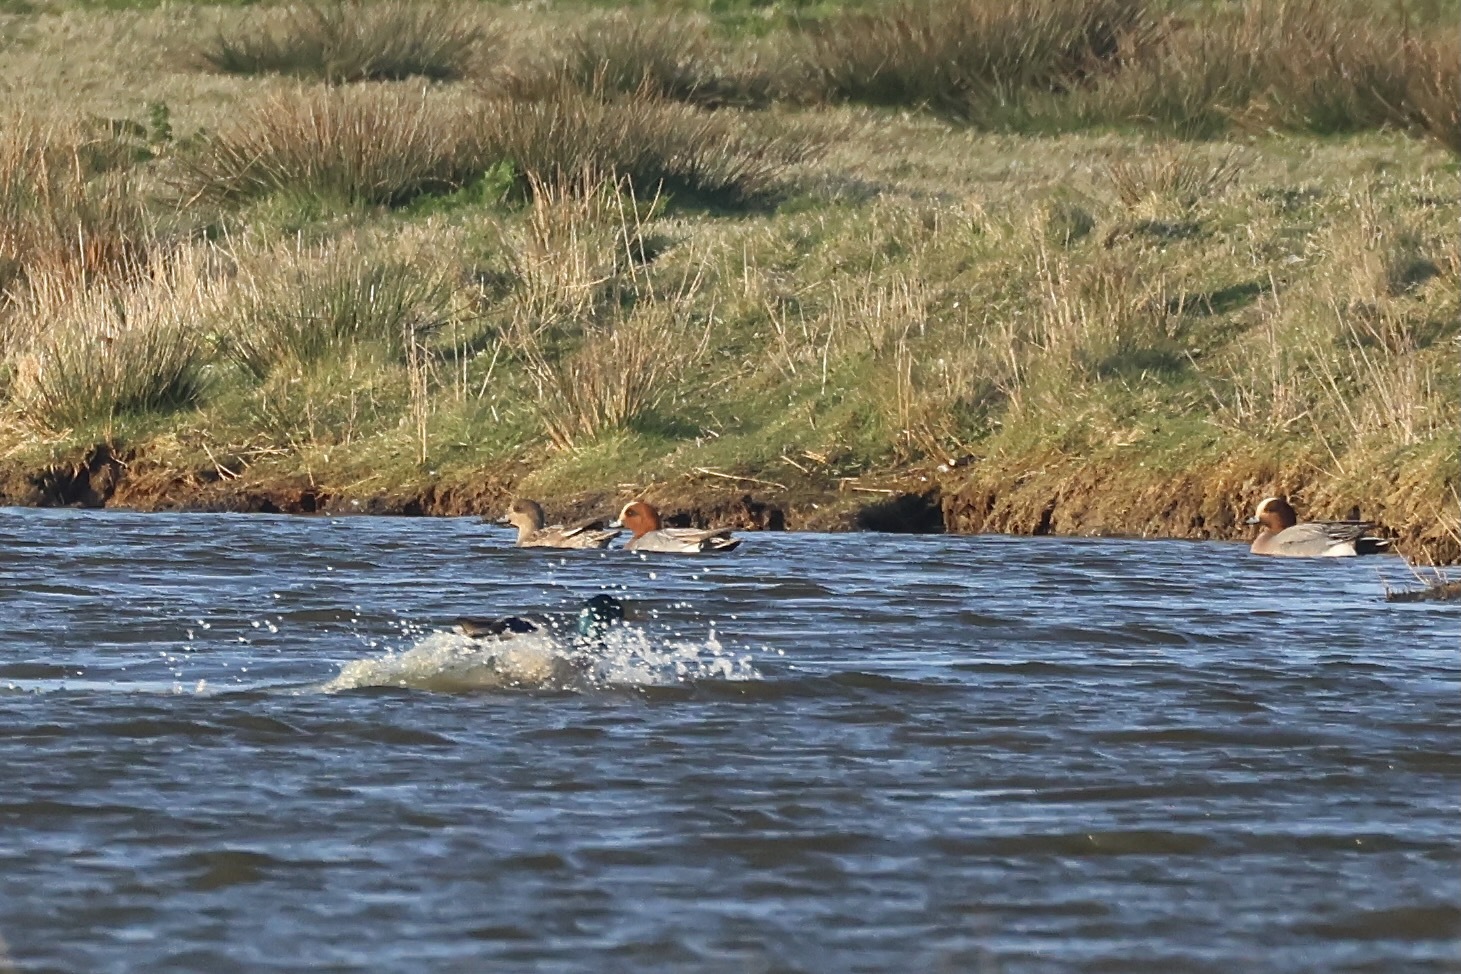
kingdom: Animalia
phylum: Chordata
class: Aves
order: Anseriformes
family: Anatidae
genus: Mareca
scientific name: Mareca penelope
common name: Eurasian wigeon
